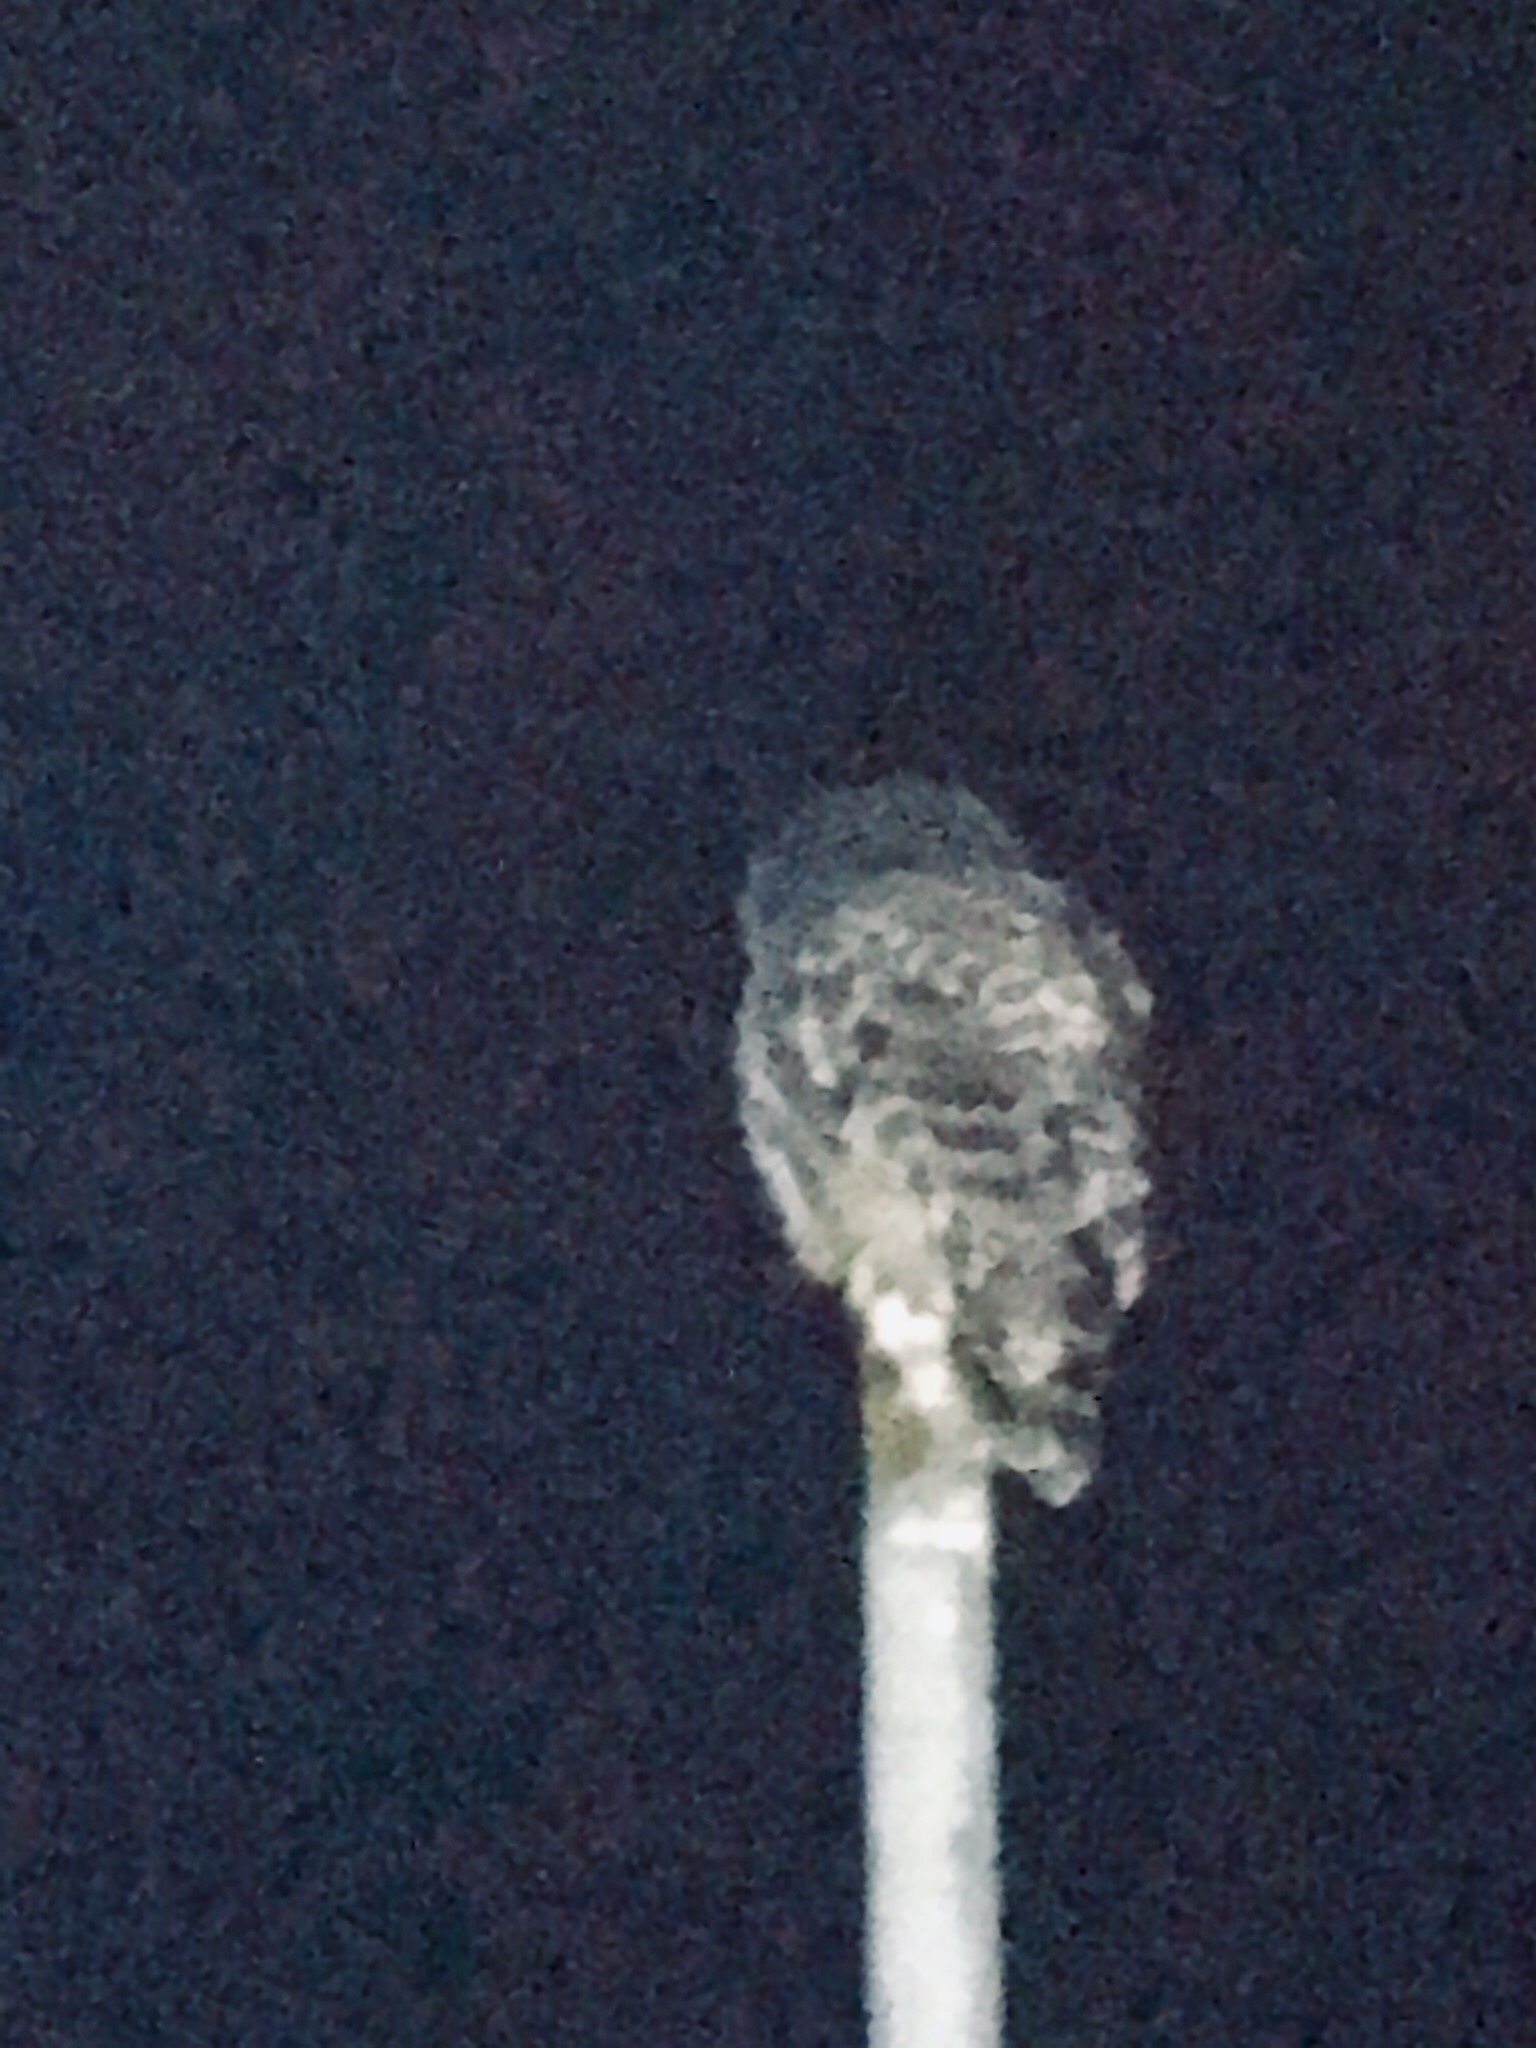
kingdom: Animalia
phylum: Chordata
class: Aves
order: Strigiformes
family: Strigidae
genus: Strix
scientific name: Strix varia
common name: Barred owl
